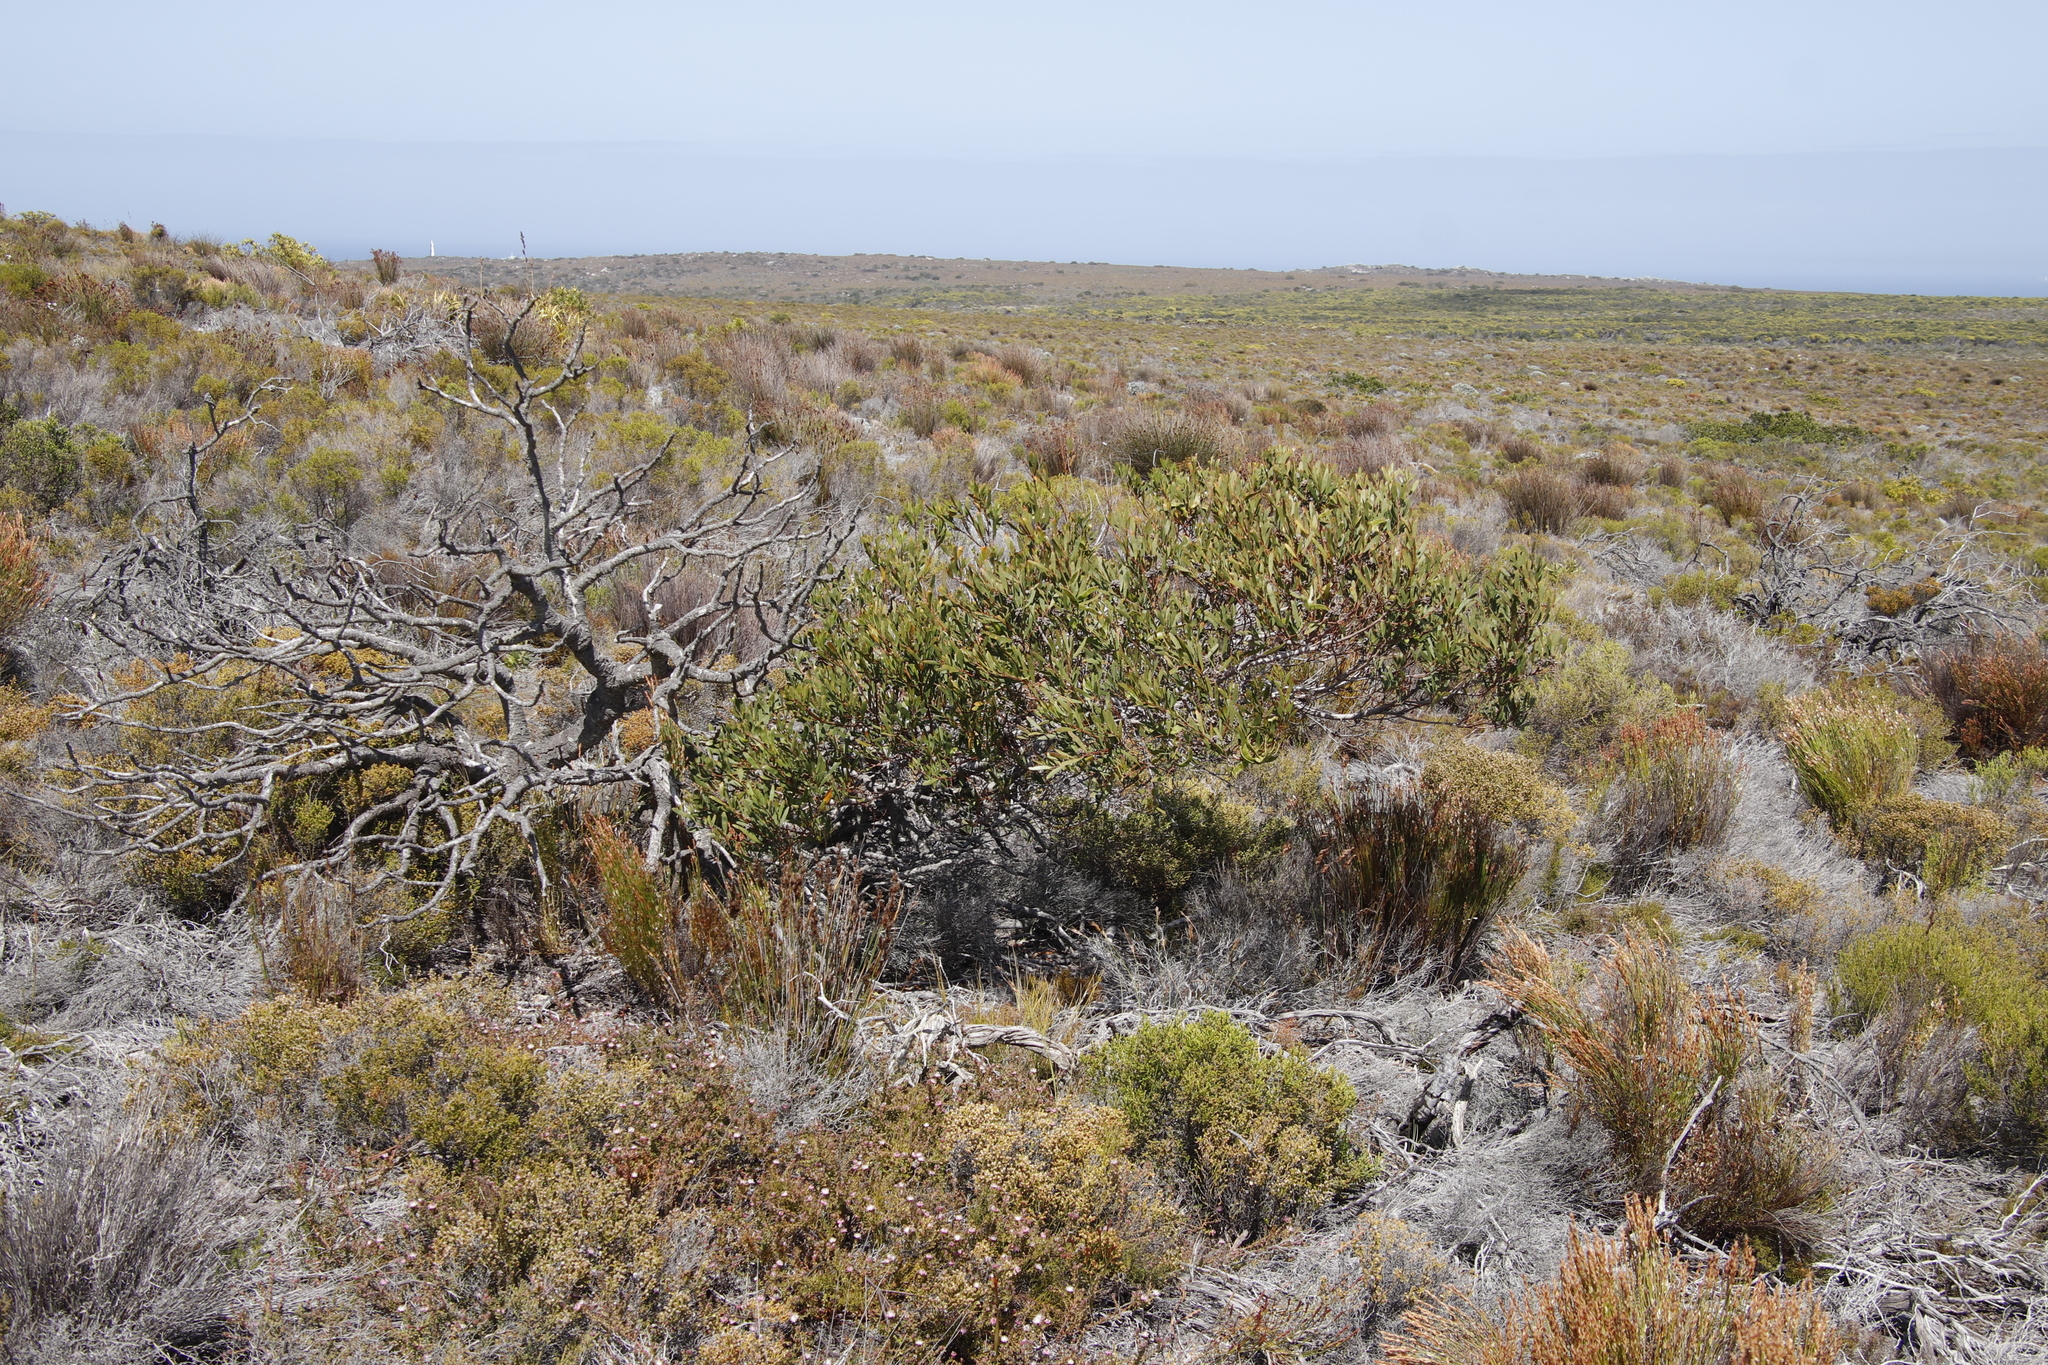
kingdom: Plantae
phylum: Tracheophyta
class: Magnoliopsida
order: Fabales
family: Fabaceae
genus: Acacia
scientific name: Acacia cyclops
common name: Coastal wattle
